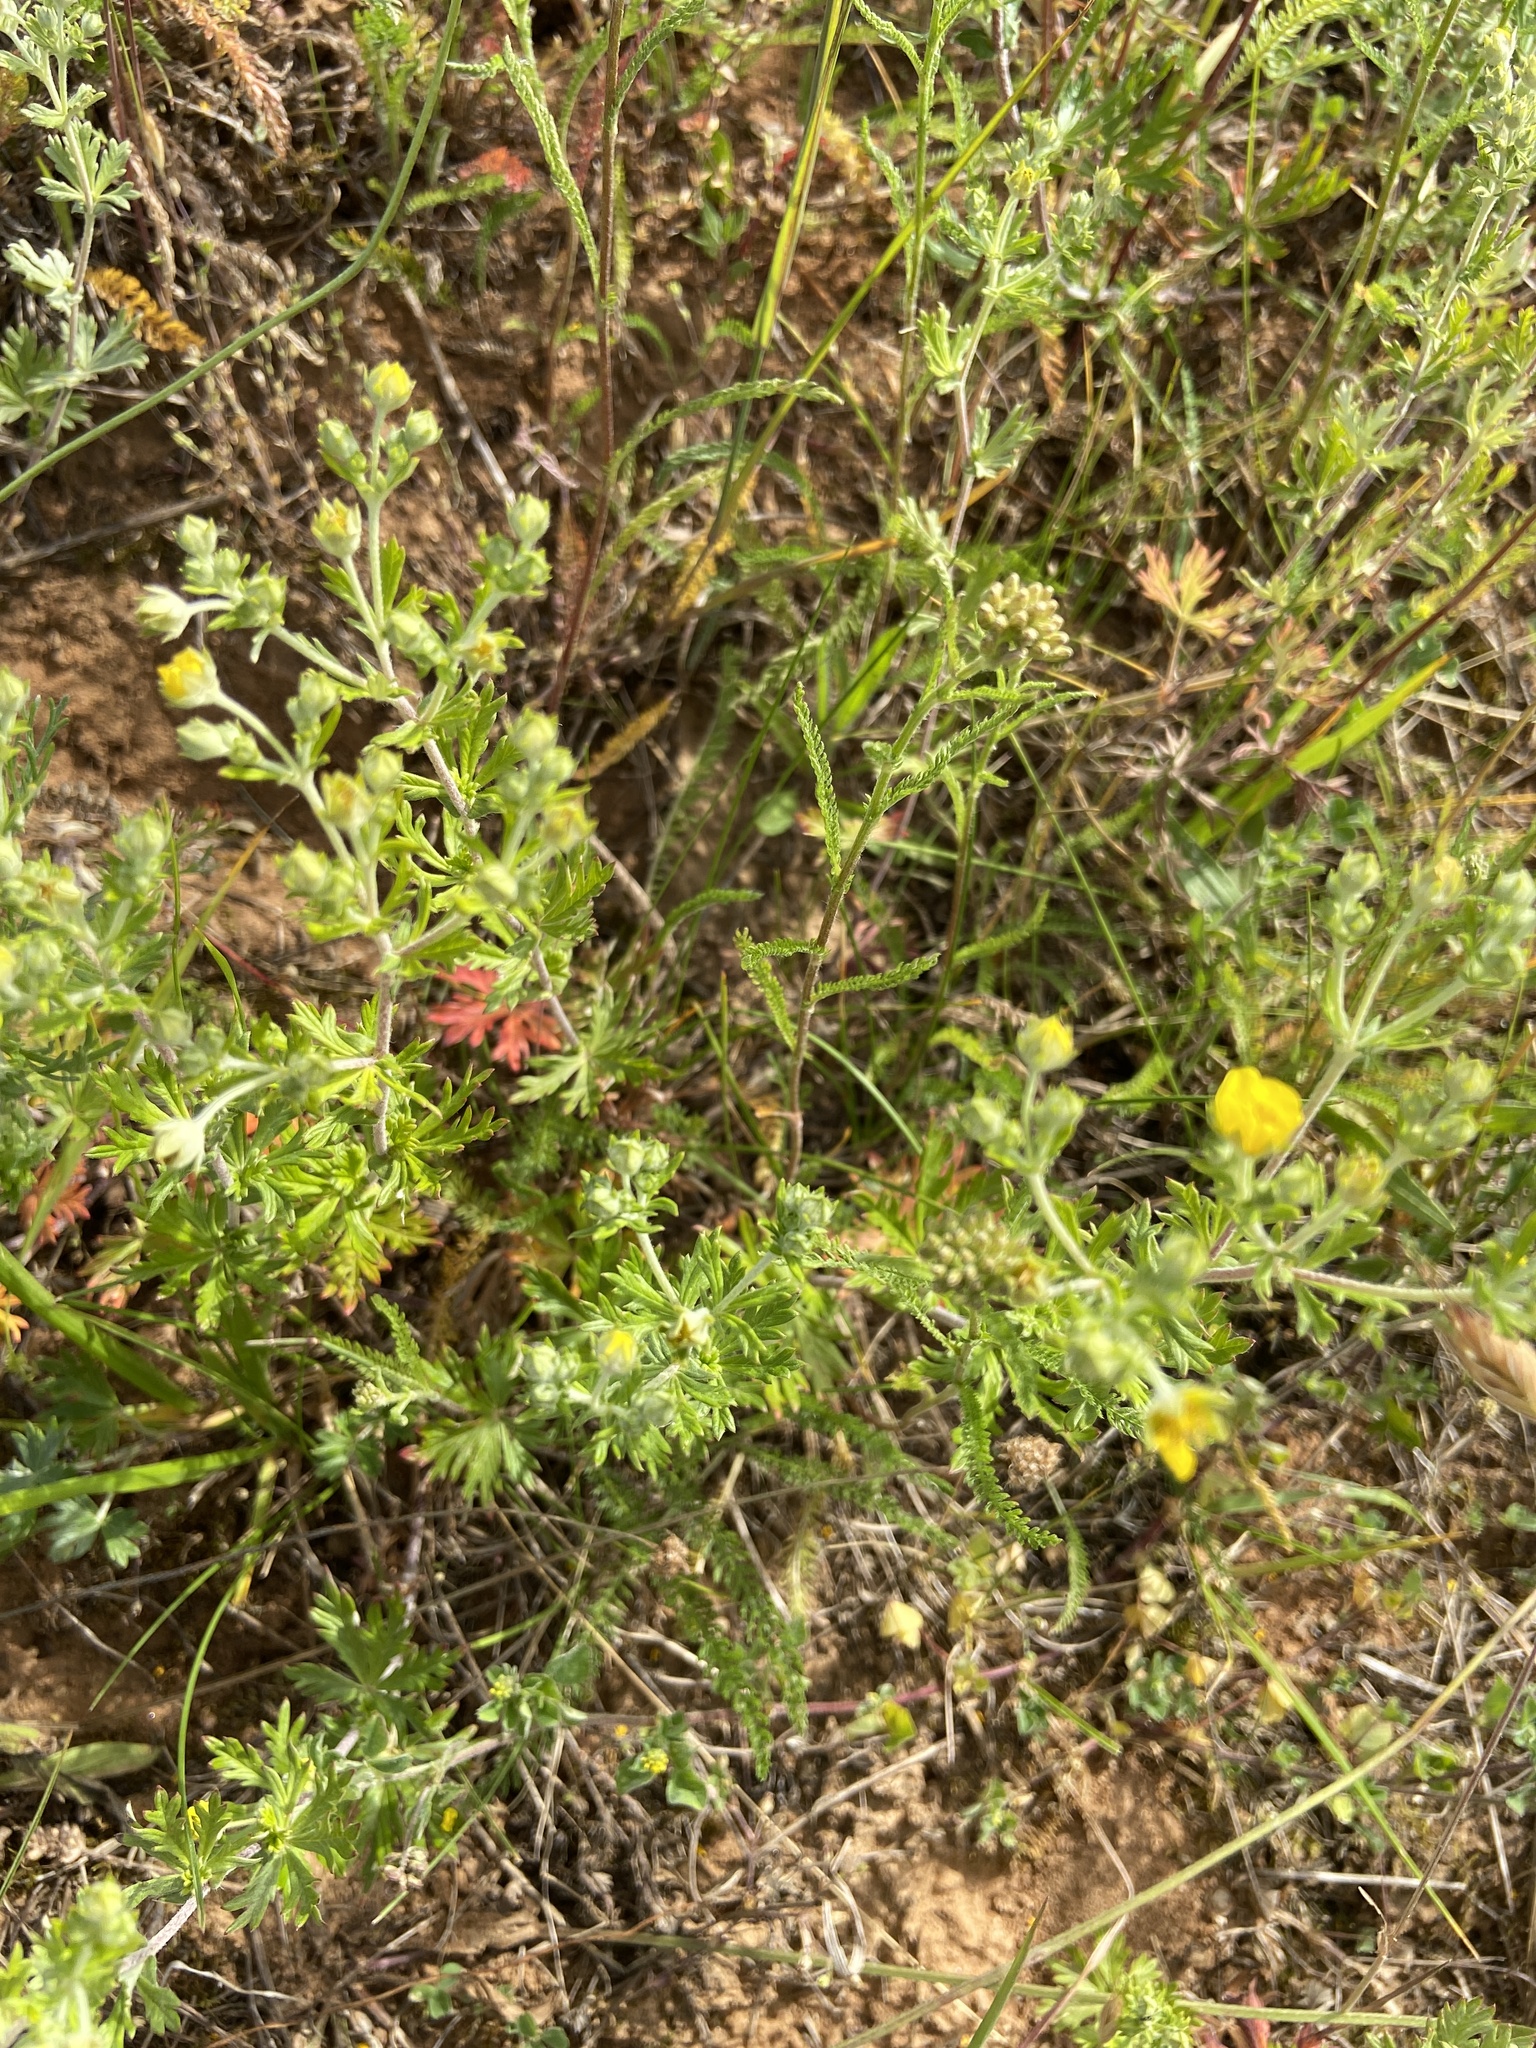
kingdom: Plantae
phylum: Tracheophyta
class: Magnoliopsida
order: Rosales
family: Rosaceae
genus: Potentilla
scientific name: Potentilla argentea
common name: Hoary cinquefoil
